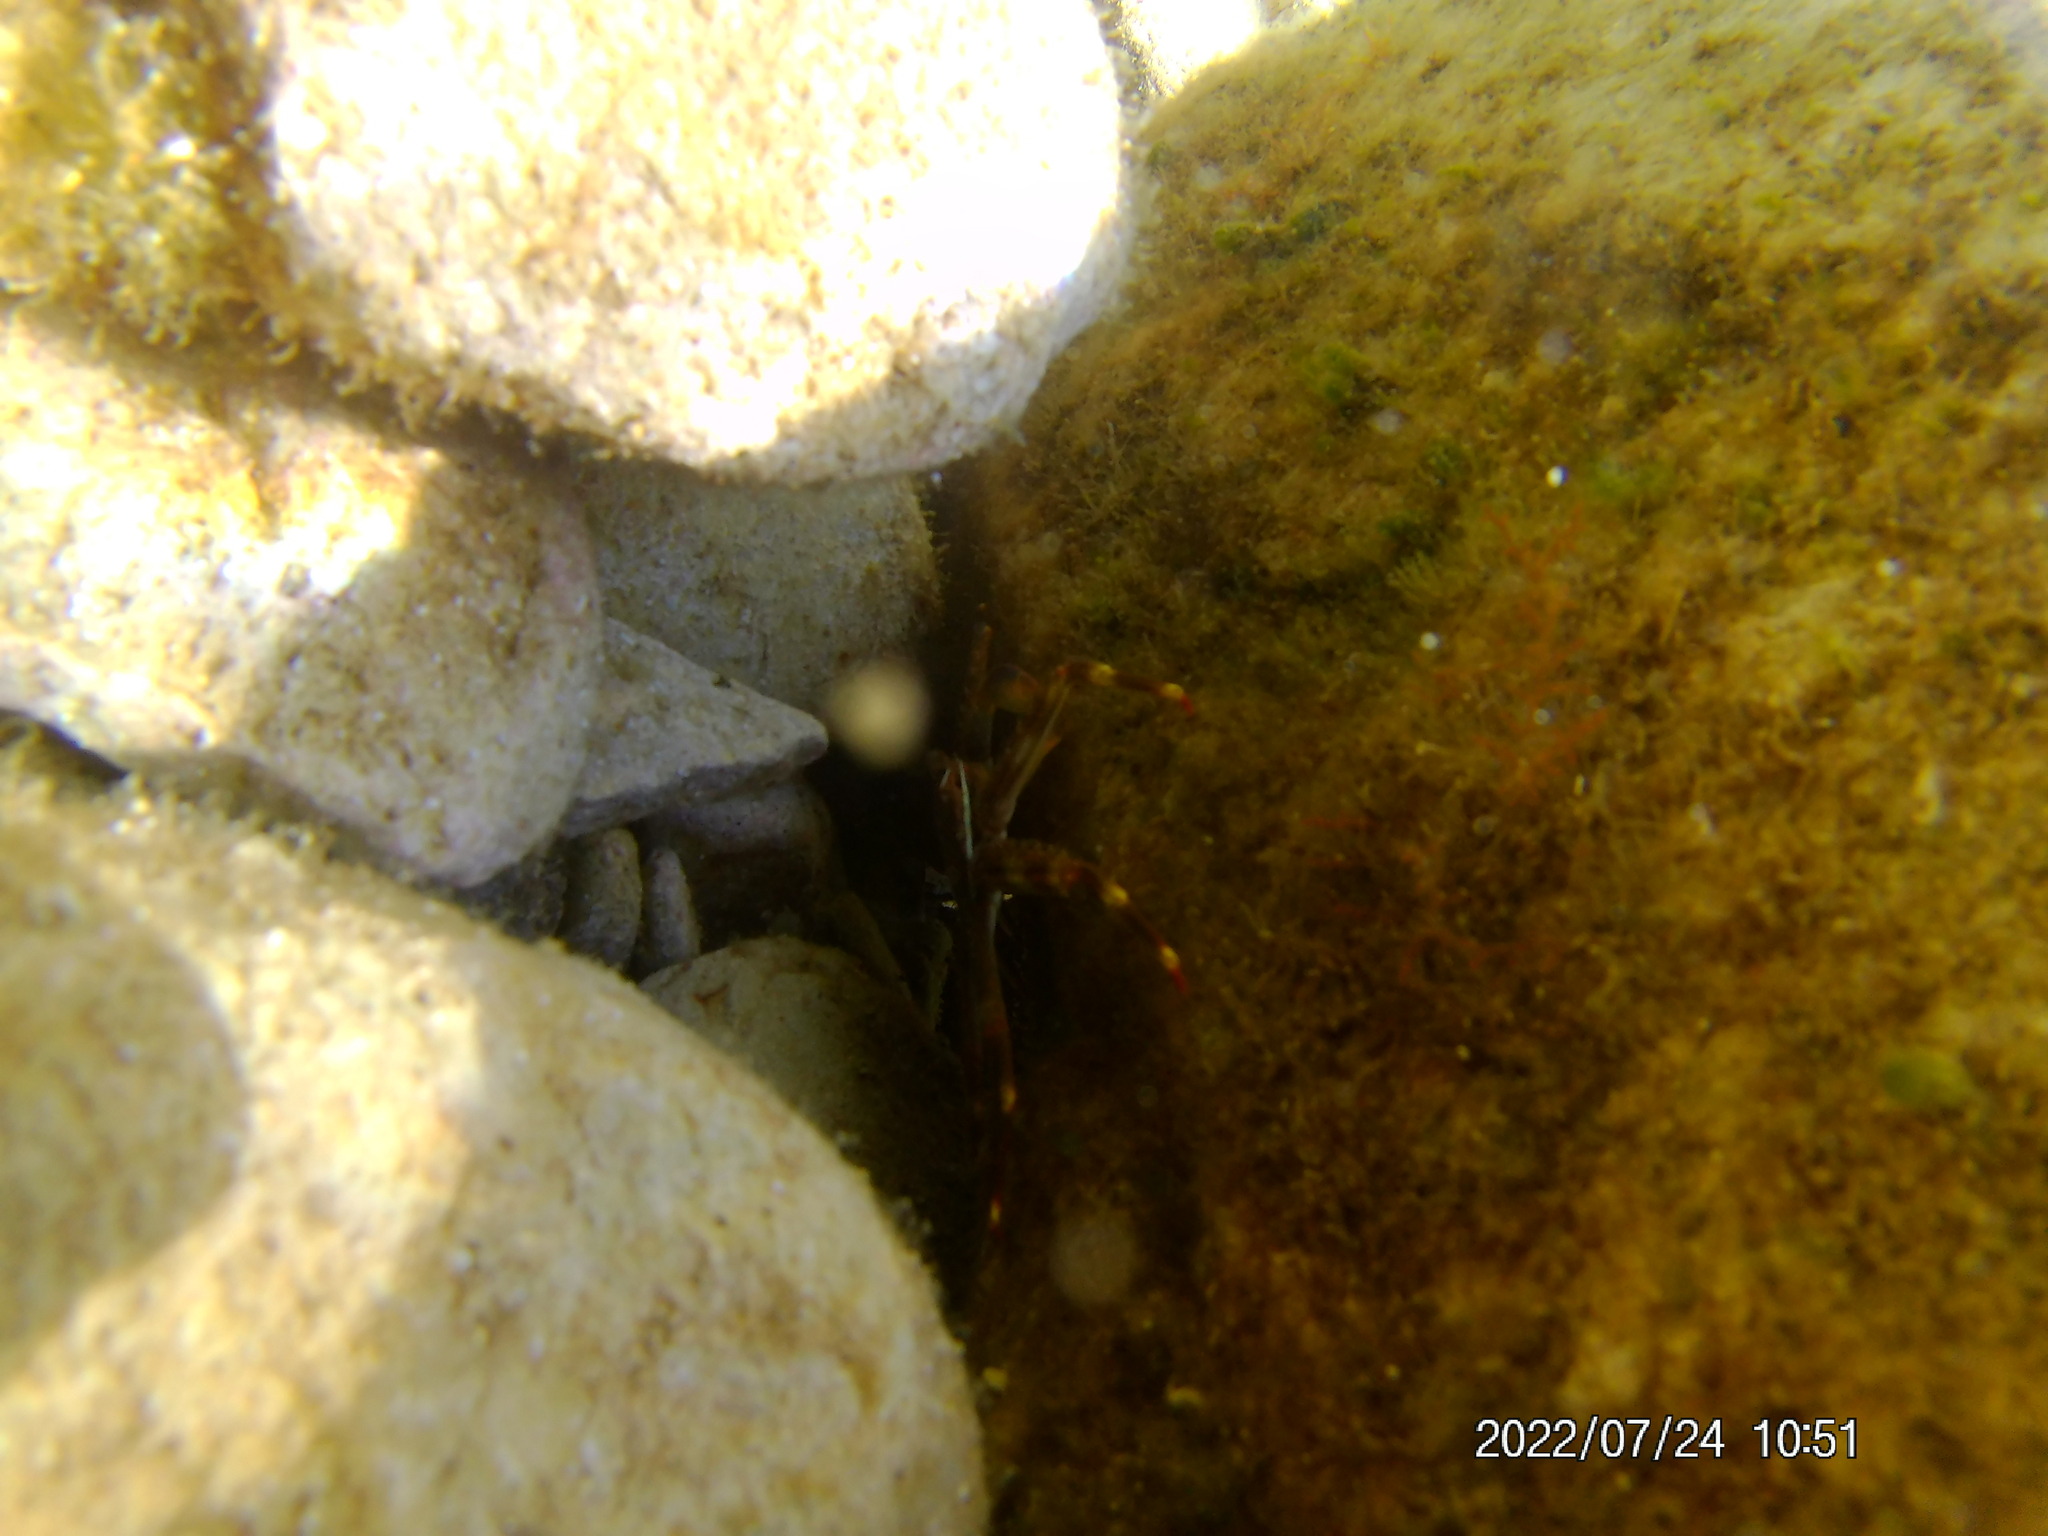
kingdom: Animalia
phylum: Arthropoda
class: Malacostraca
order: Decapoda
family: Percnidae
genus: Percnon
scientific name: Percnon gibbesi
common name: Nimble spray crab
